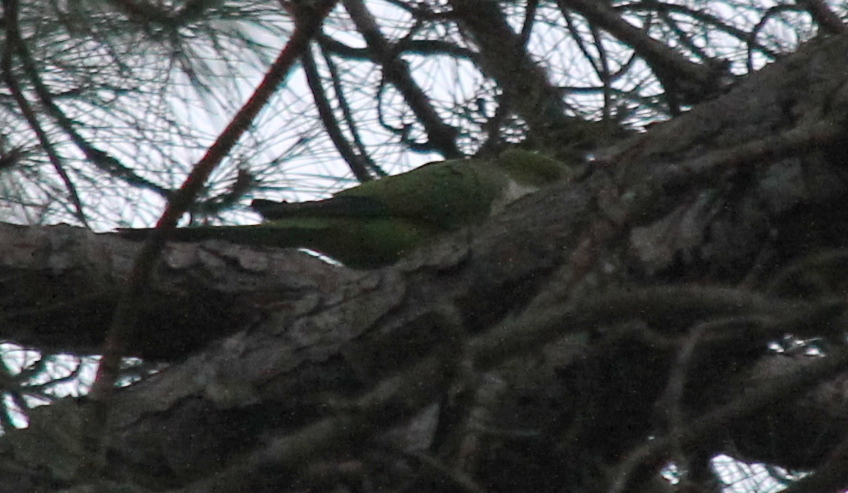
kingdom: Animalia
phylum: Chordata
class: Aves
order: Psittaciformes
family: Psittacidae
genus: Myiopsitta
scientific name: Myiopsitta monachus
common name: Monk parakeet
